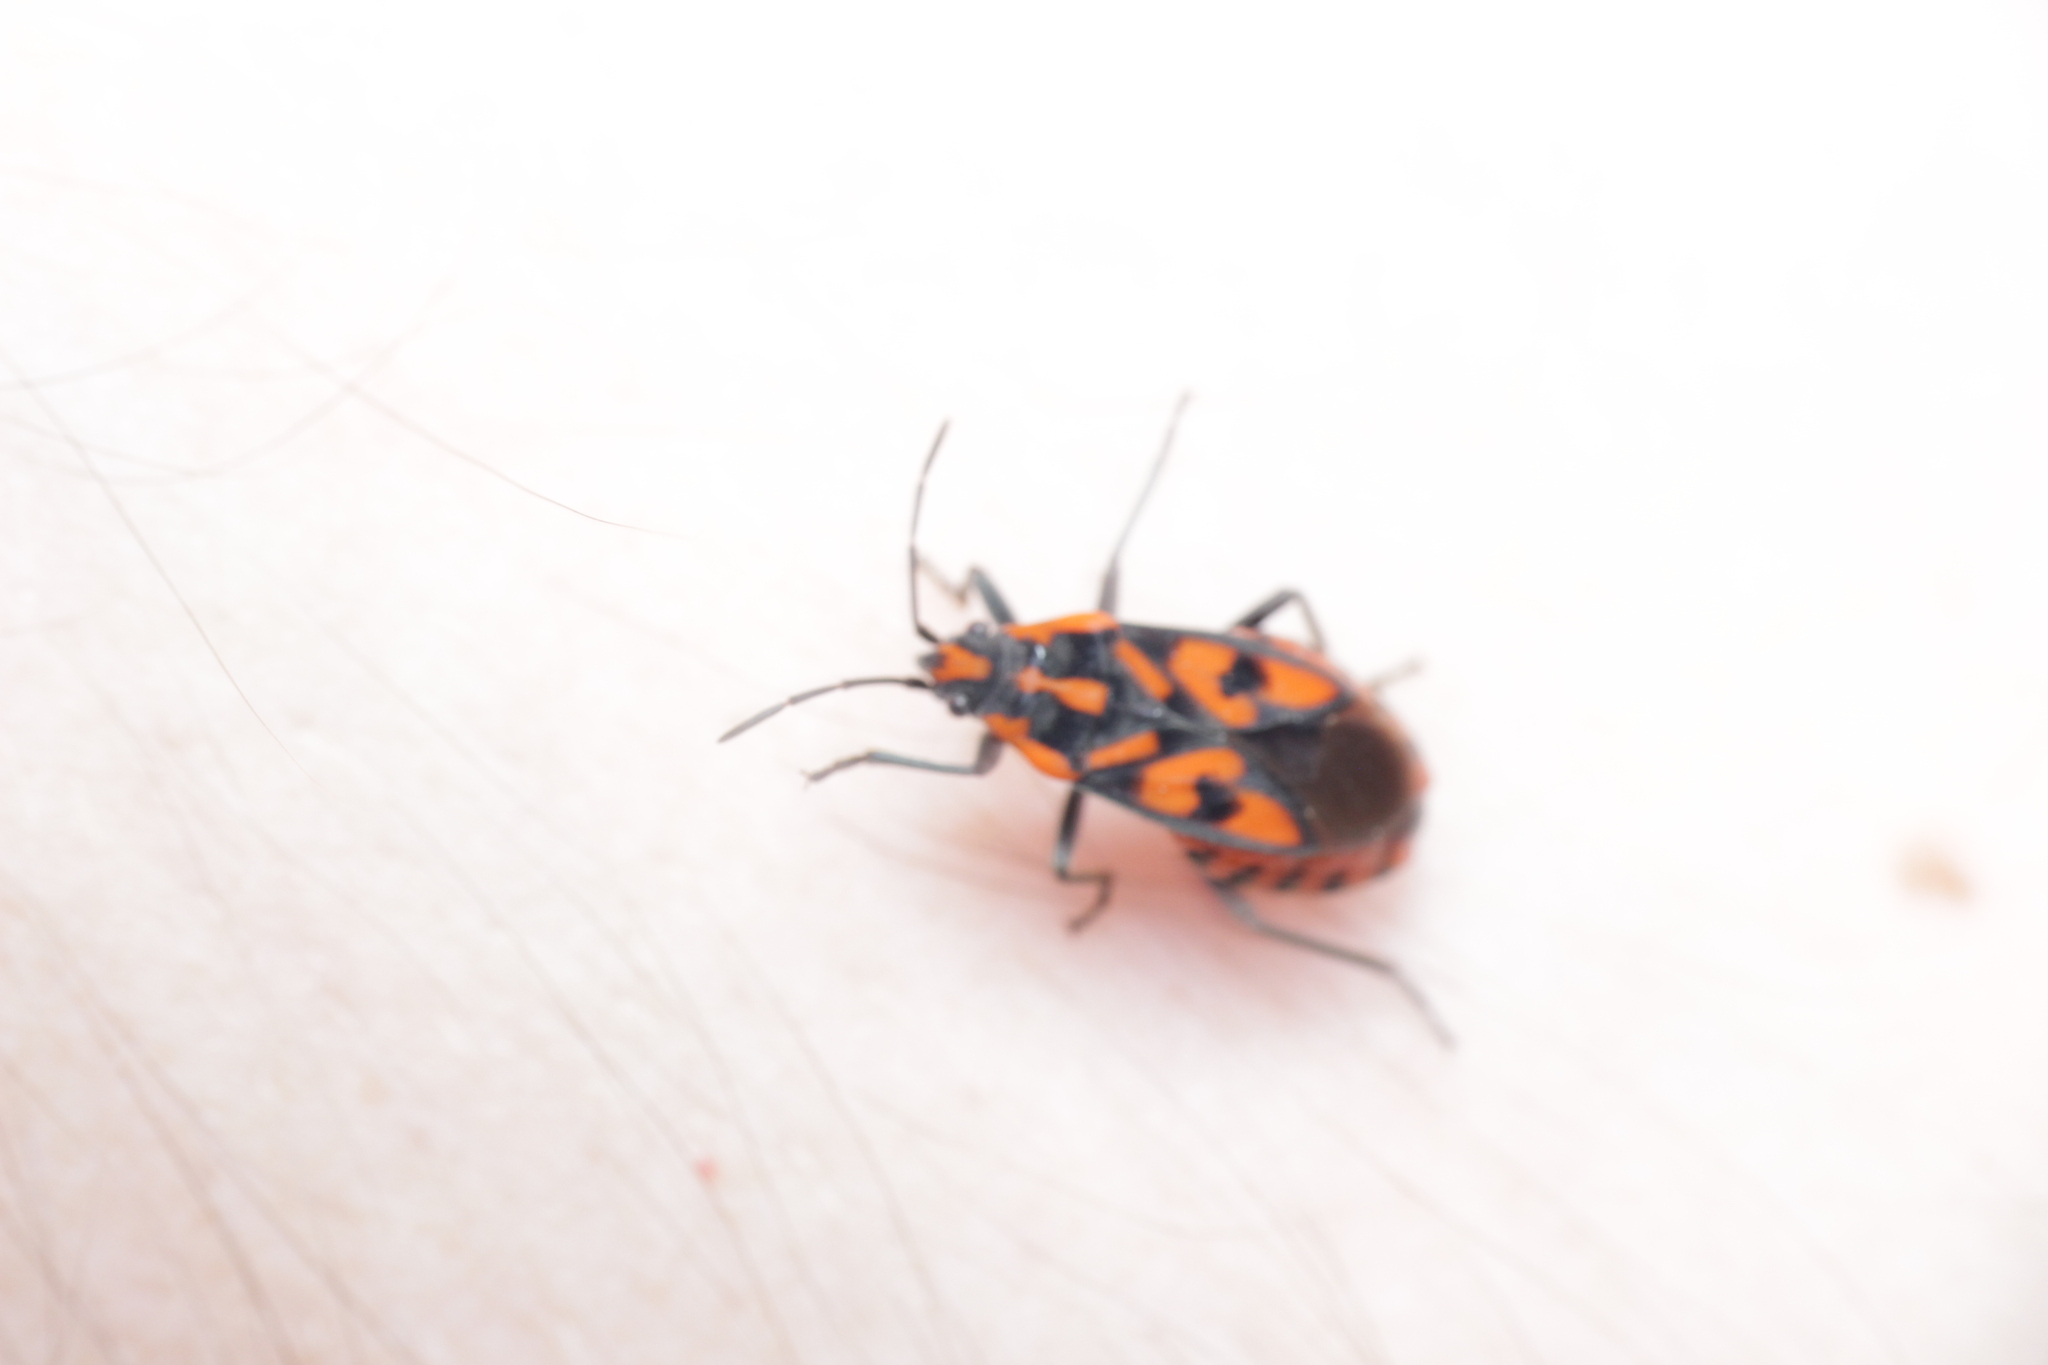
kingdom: Animalia
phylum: Arthropoda
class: Insecta
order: Hemiptera
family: Lygaeidae
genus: Spilostethus
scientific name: Spilostethus saxatilis
